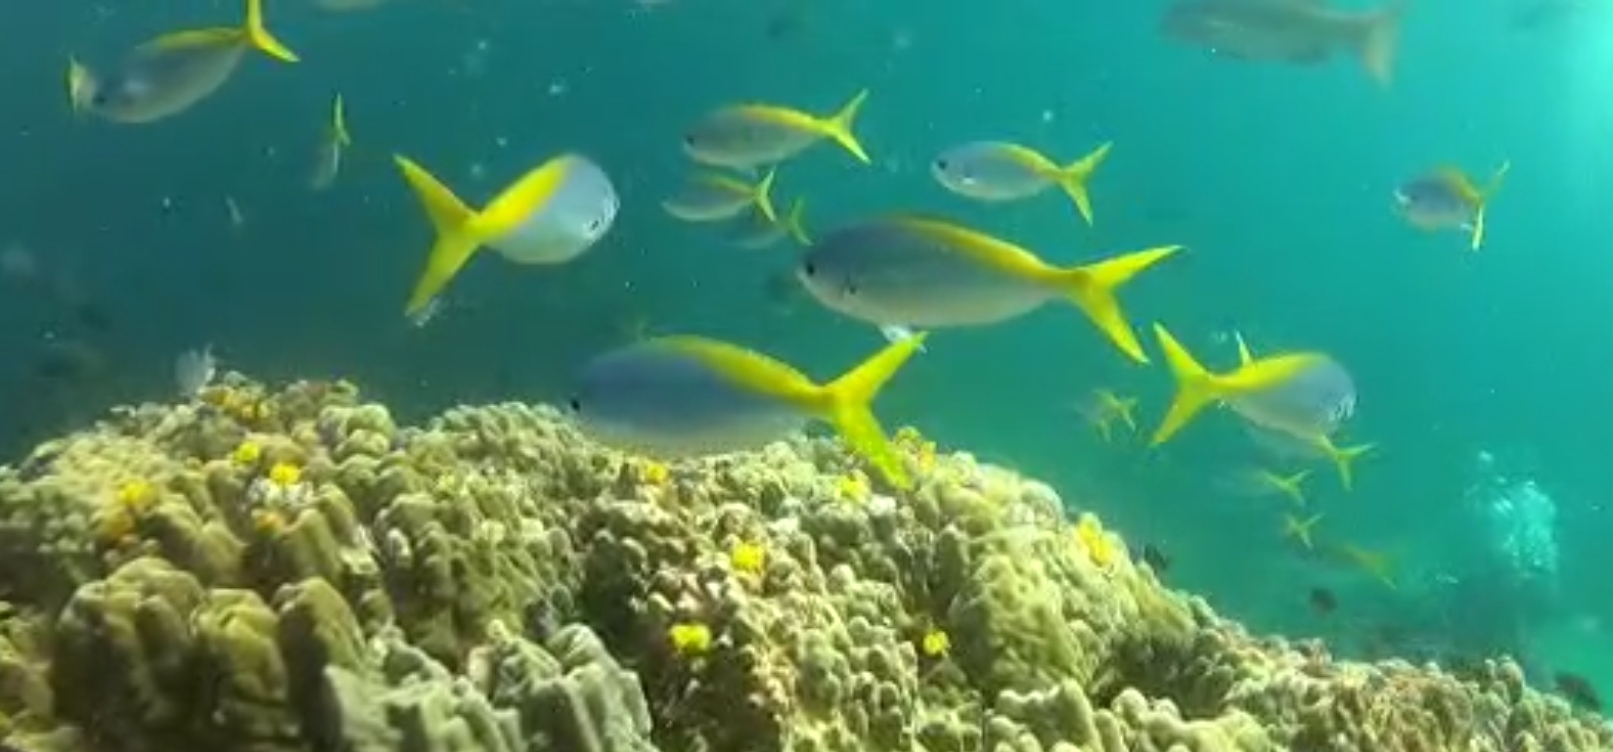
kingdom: Animalia
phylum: Chordata
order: Perciformes
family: Caesionidae
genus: Caesio
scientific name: Caesio teres
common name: Yellow and blueback fusilier
